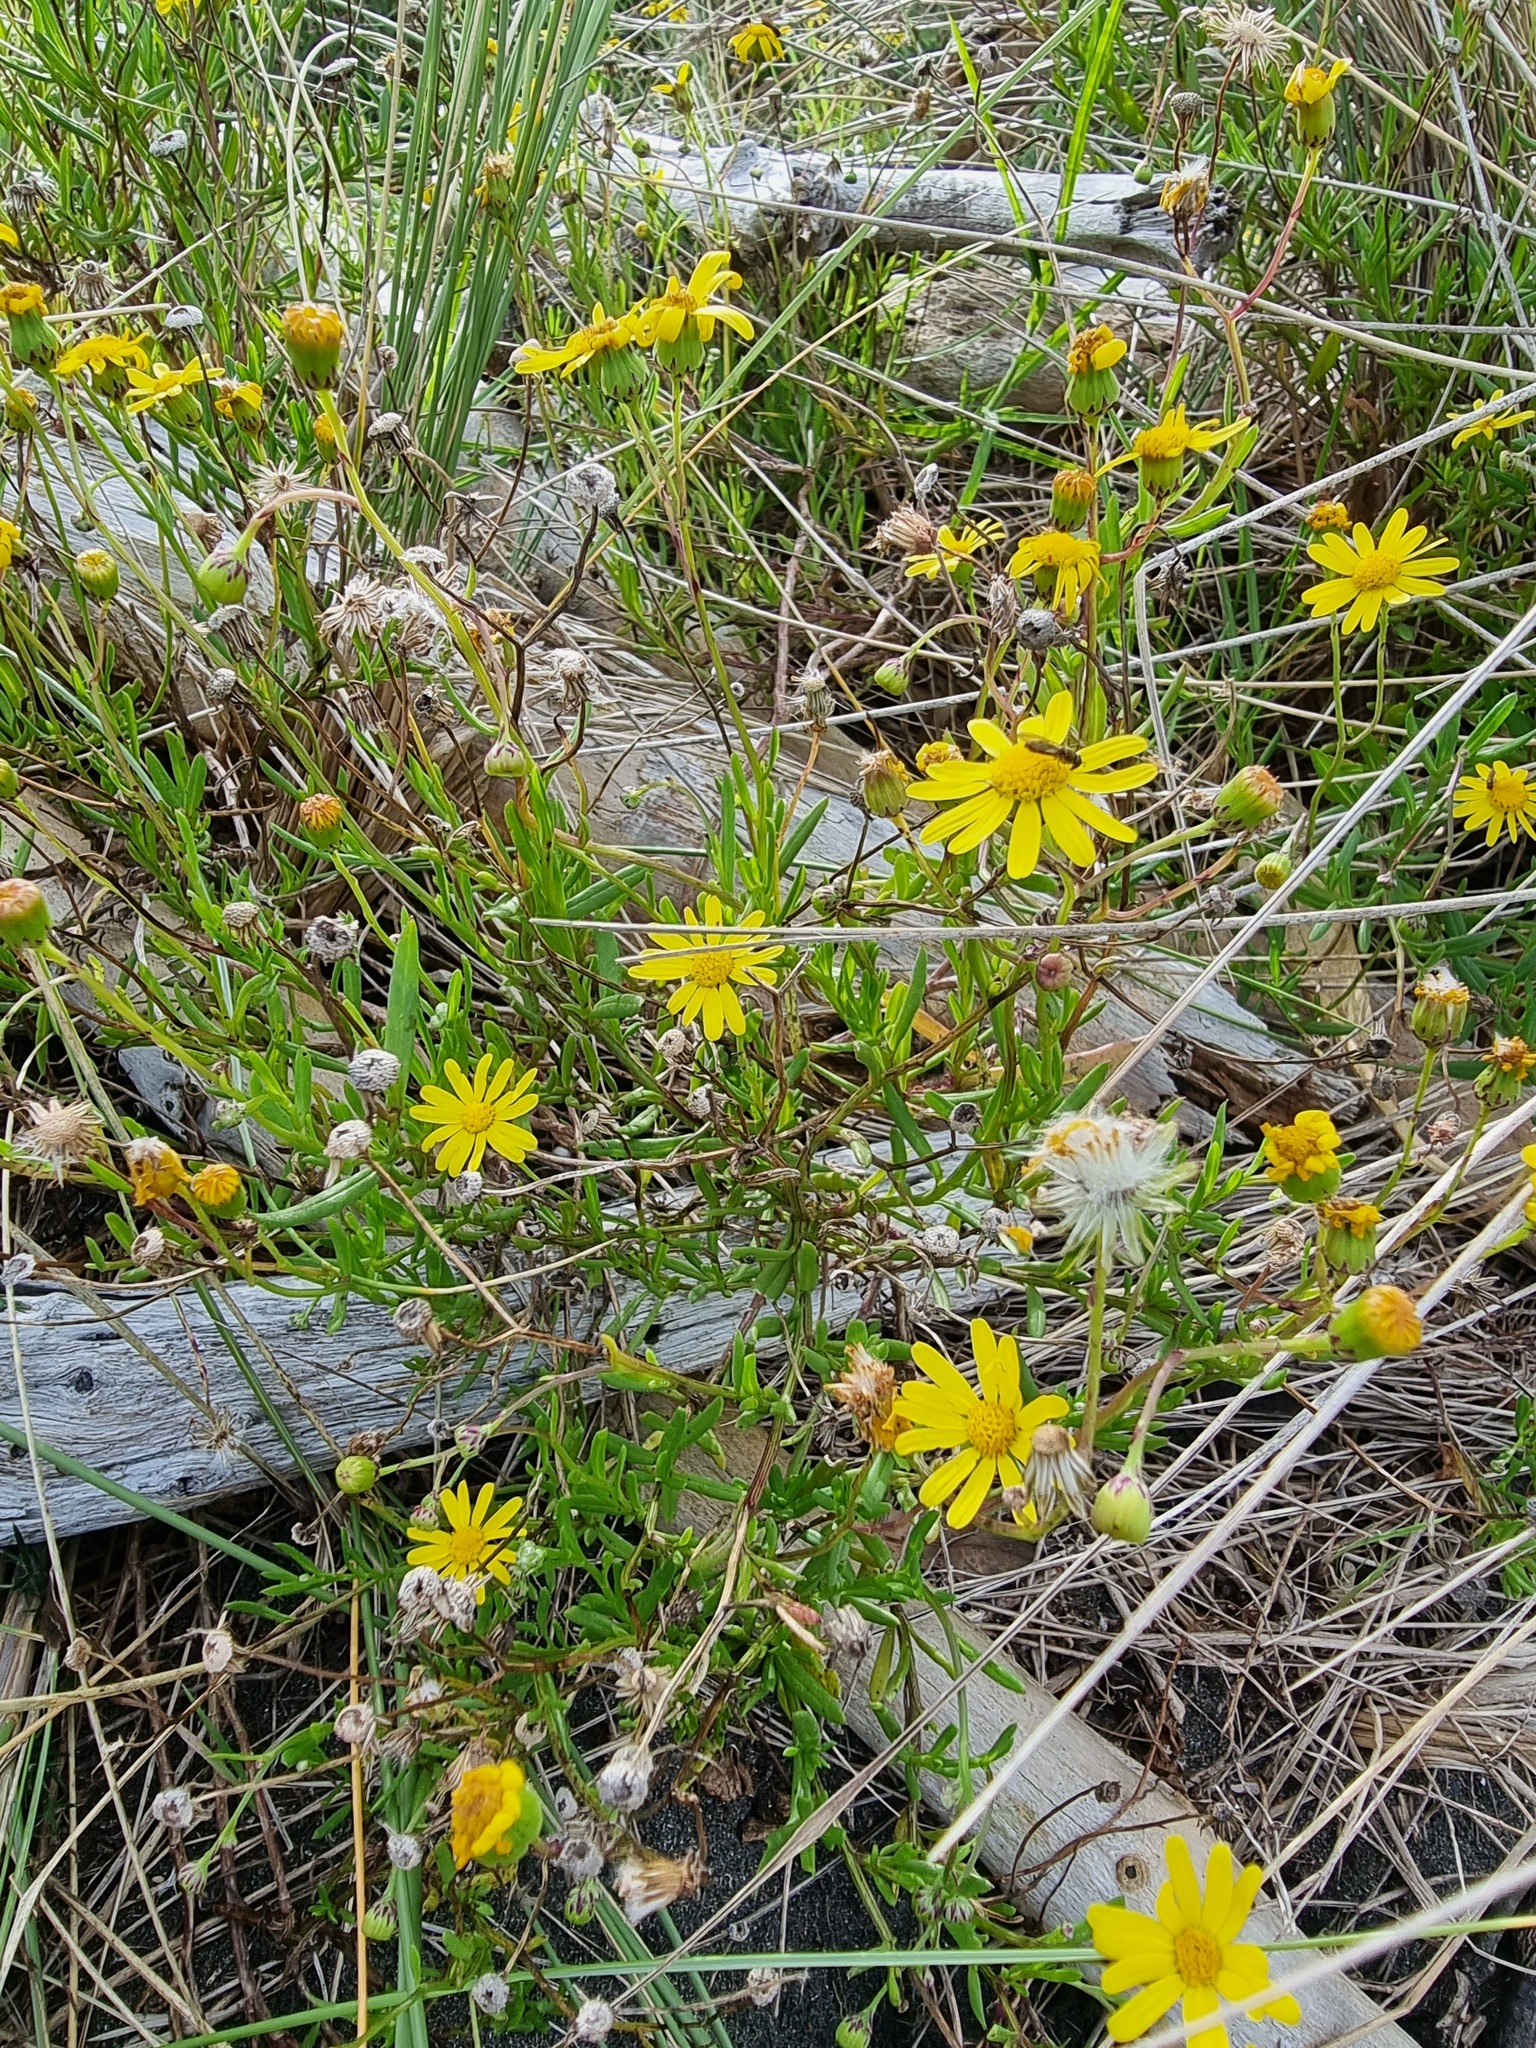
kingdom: Plantae
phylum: Tracheophyta
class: Magnoliopsida
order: Asterales
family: Asteraceae
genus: Senecio
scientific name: Senecio skirrhodon
